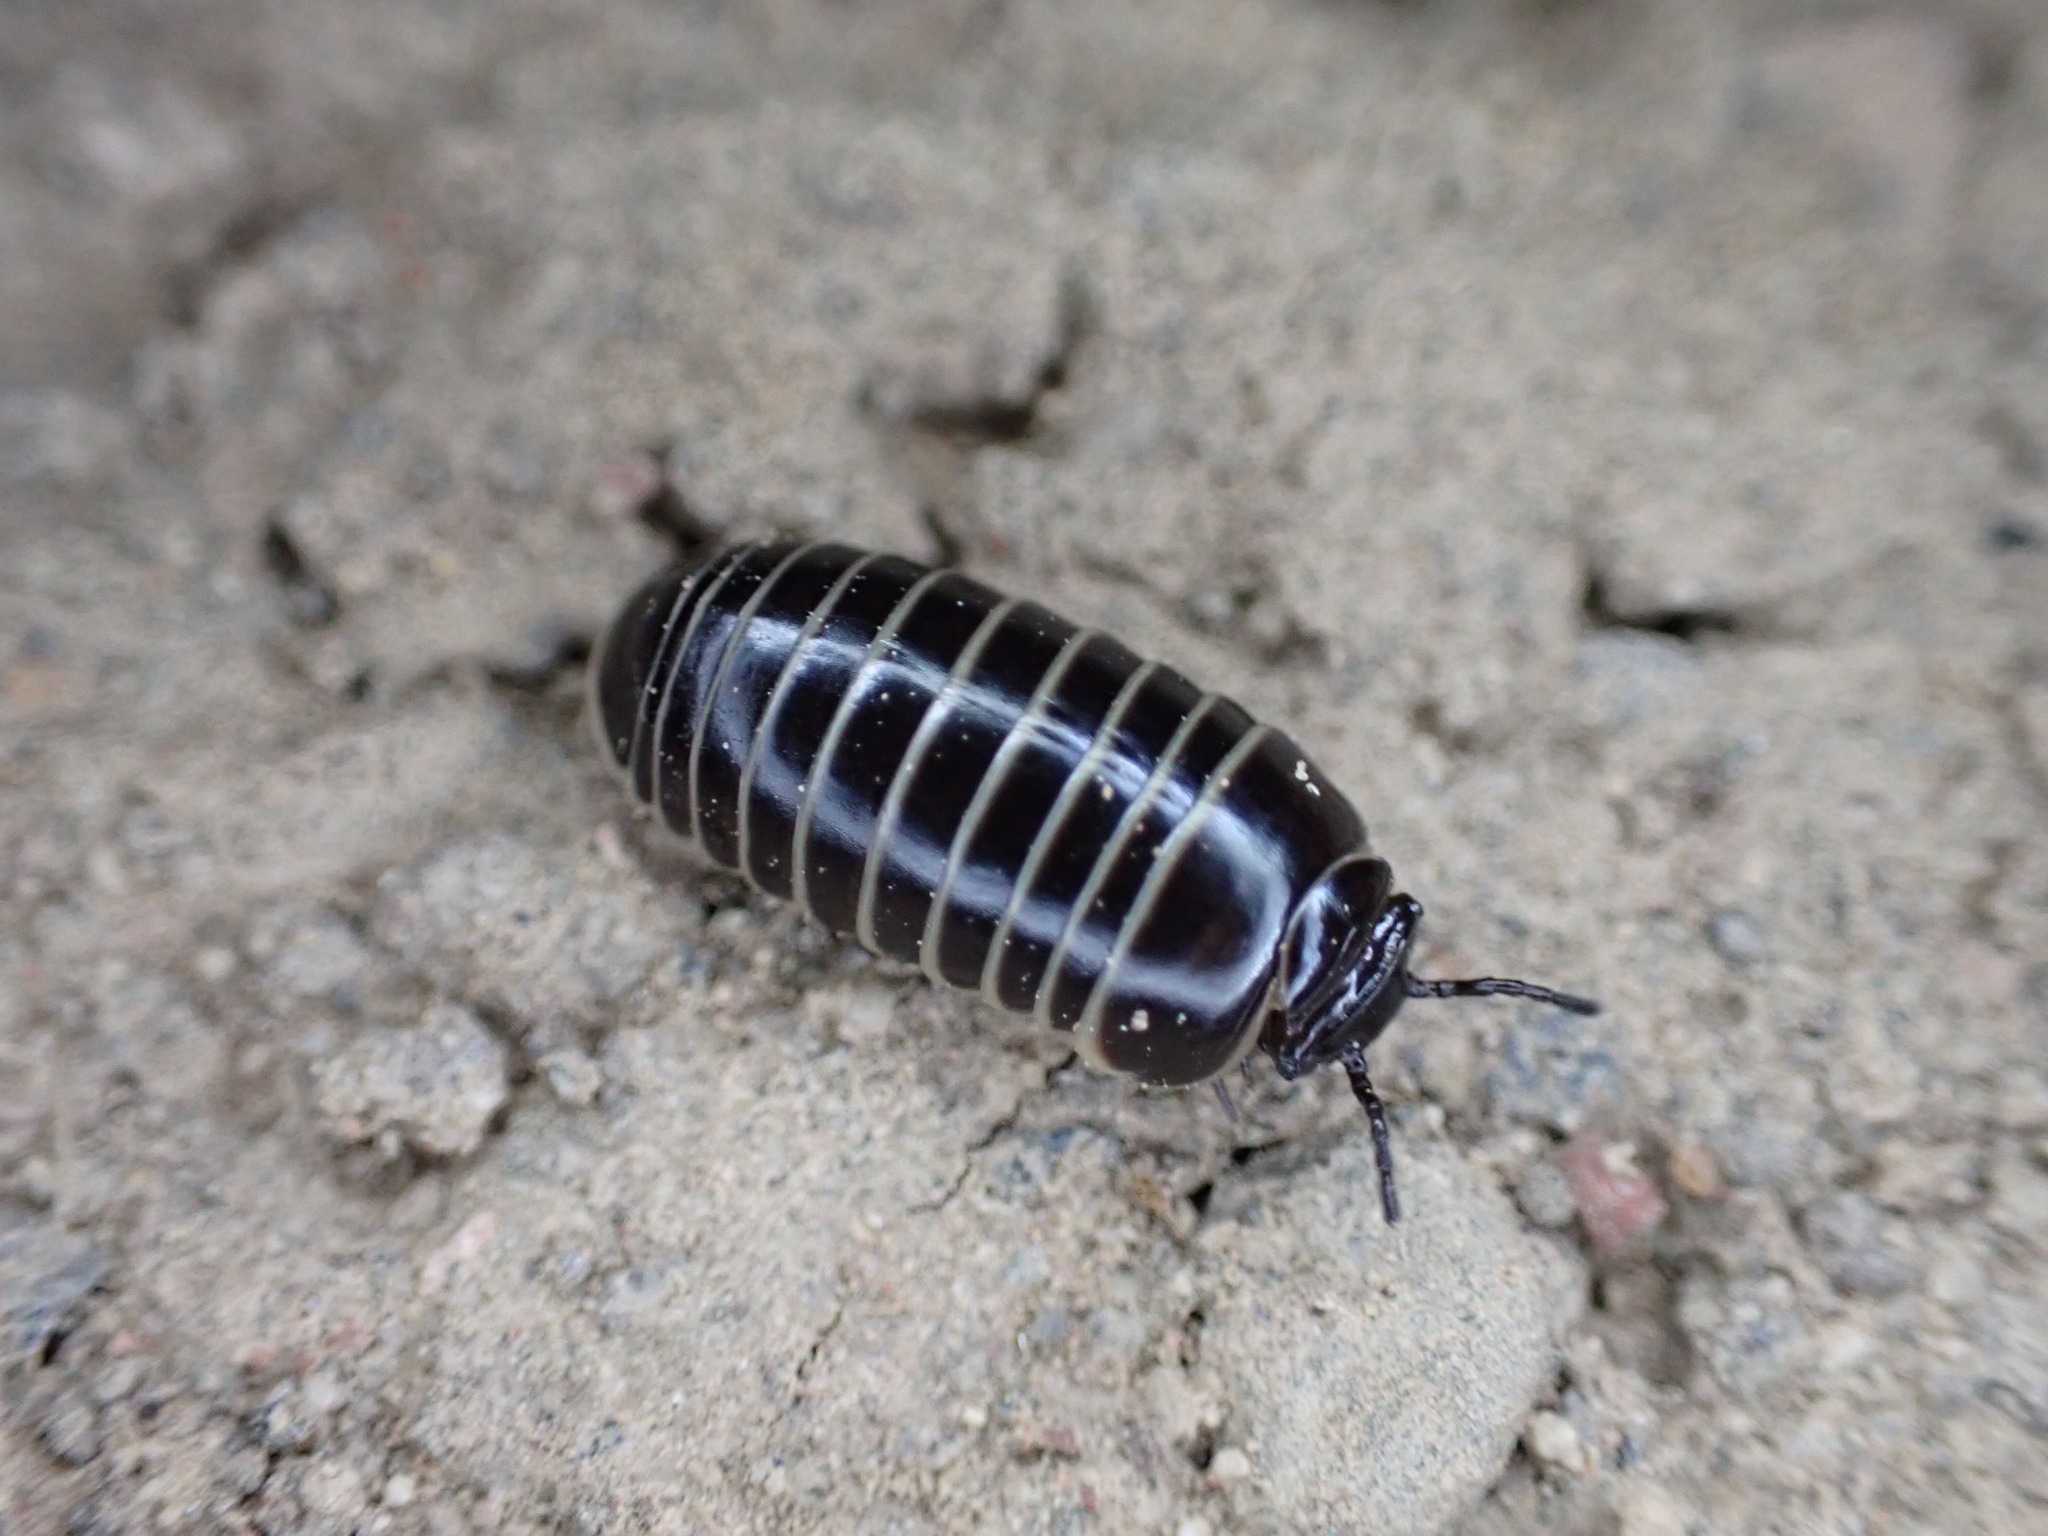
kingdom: Animalia
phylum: Arthropoda
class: Diplopoda
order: Glomerida
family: Glomeridae
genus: Glomeris
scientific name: Glomeris marginata
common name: Bordered pill millipede
